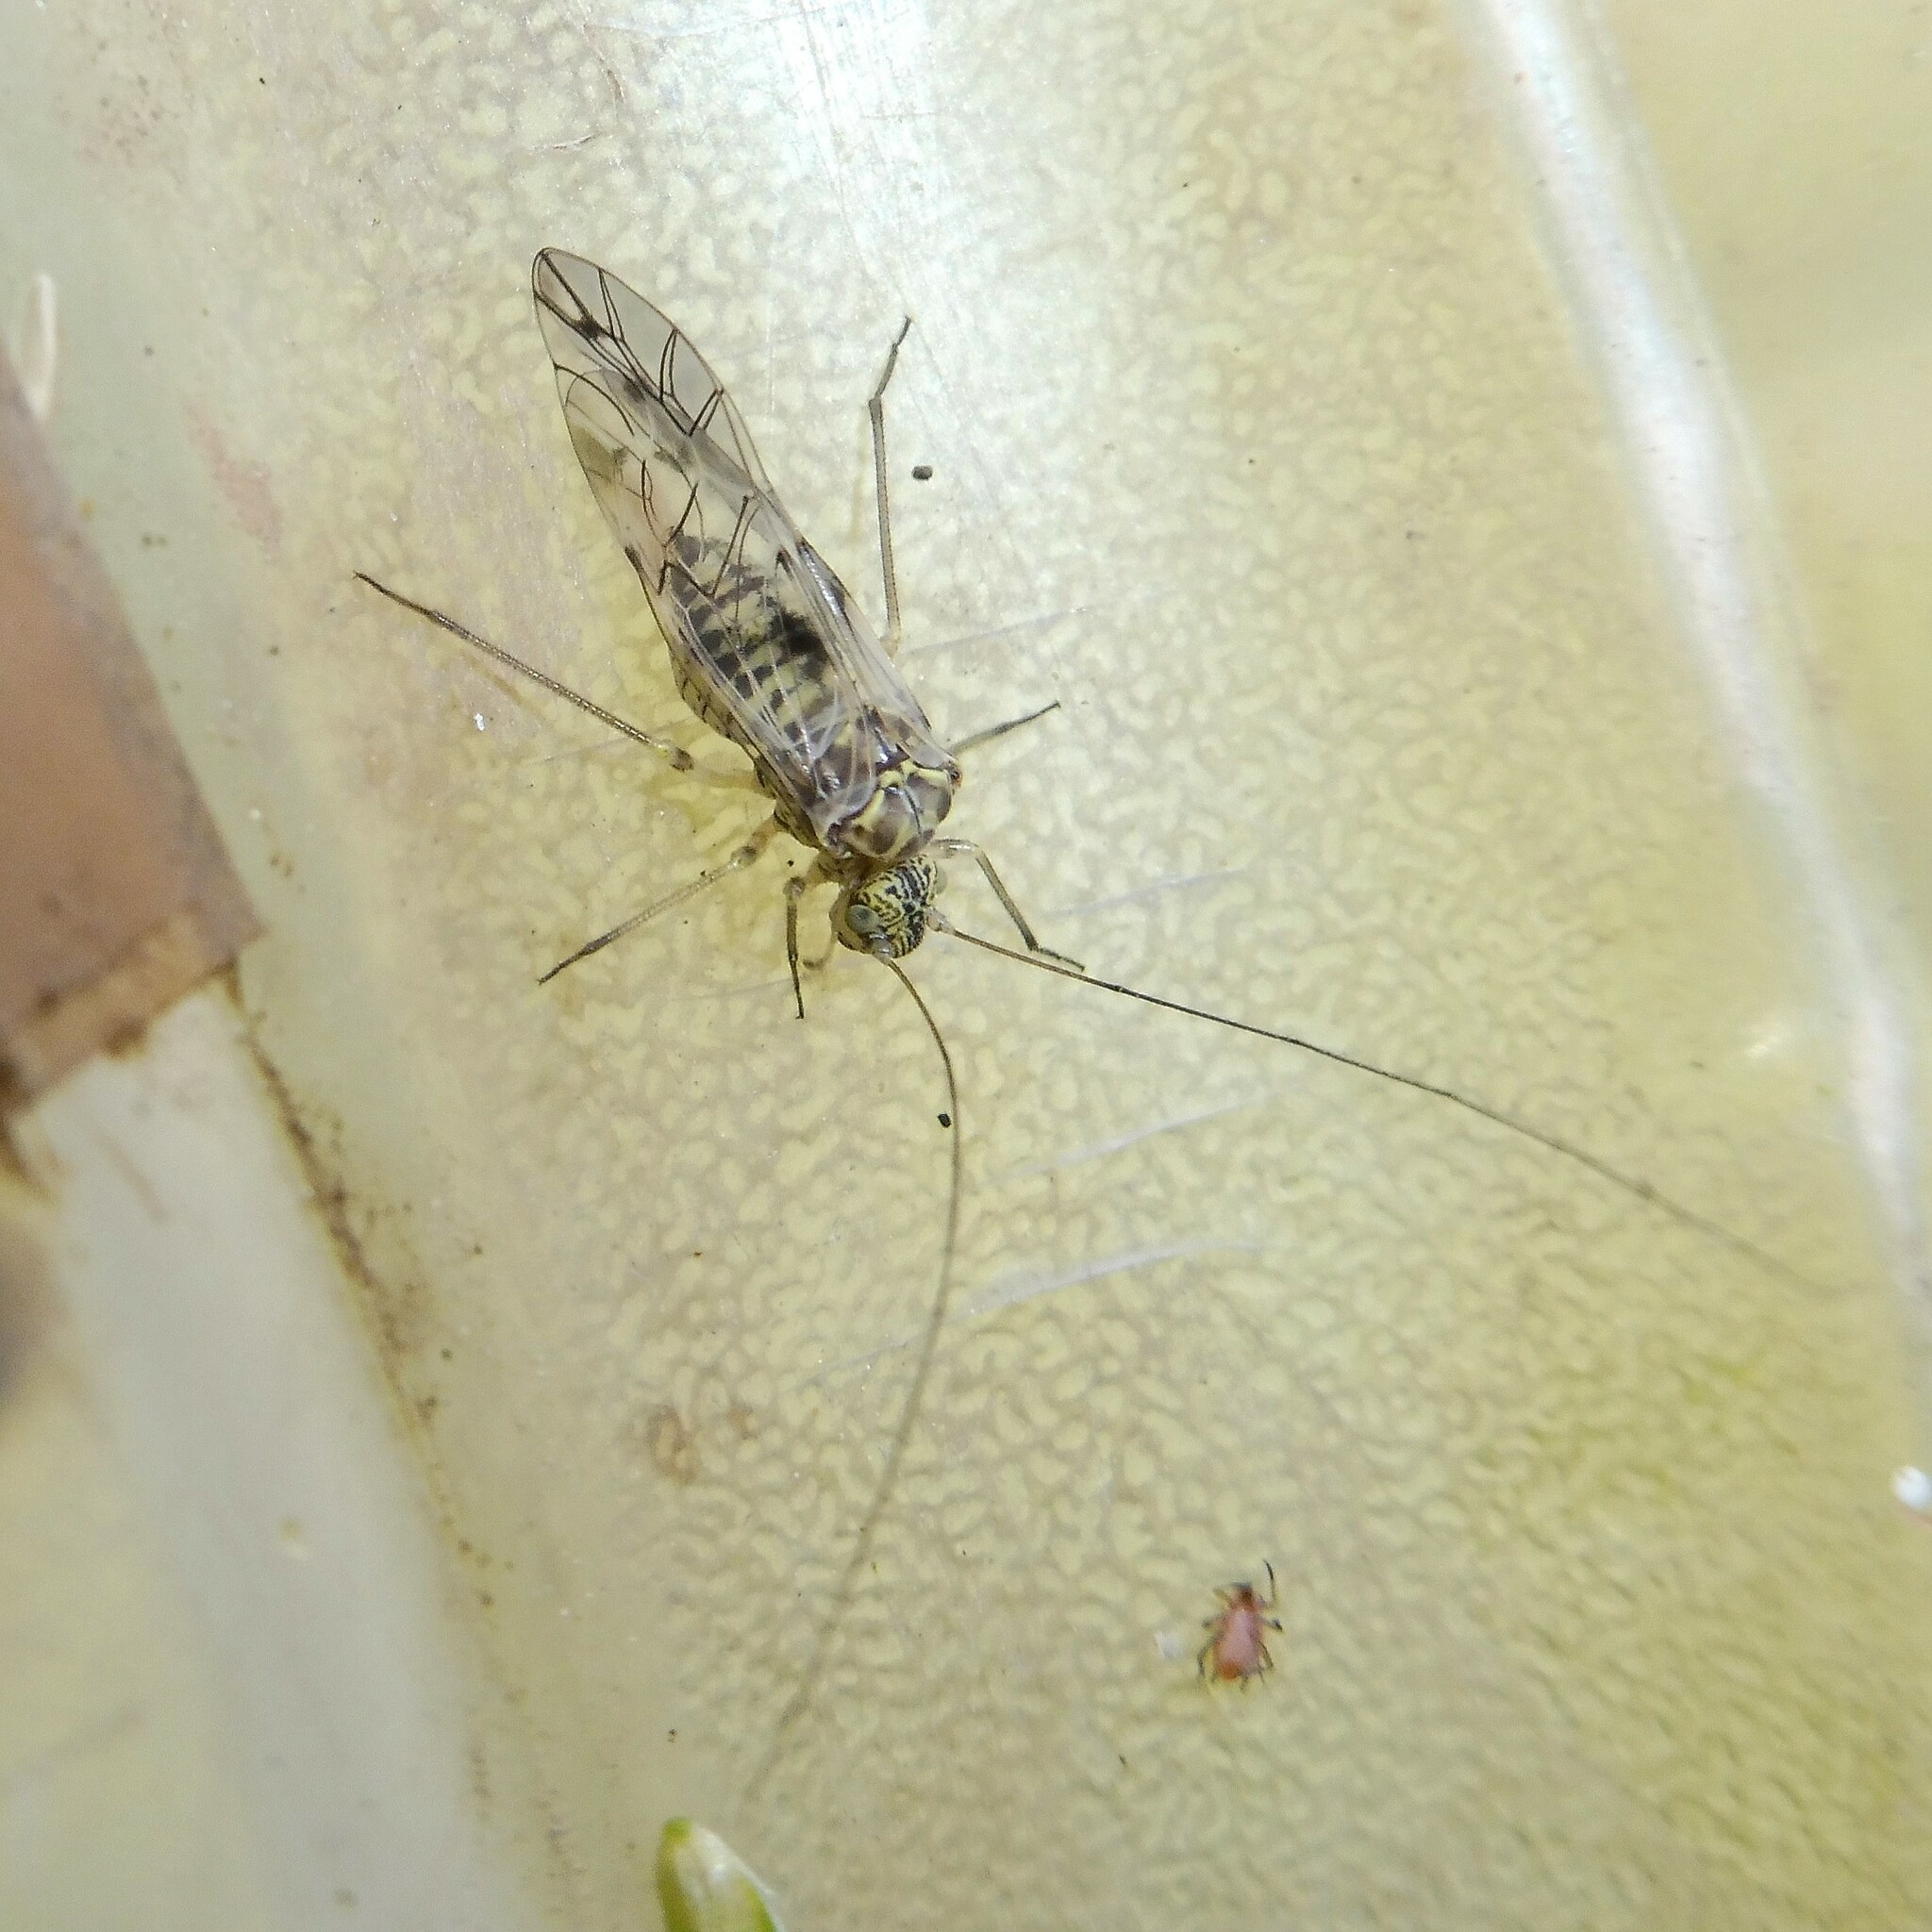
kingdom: Animalia
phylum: Arthropoda
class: Insecta
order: Psocodea
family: Psocidae
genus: Psococerastis
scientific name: Psococerastis gibbosa
